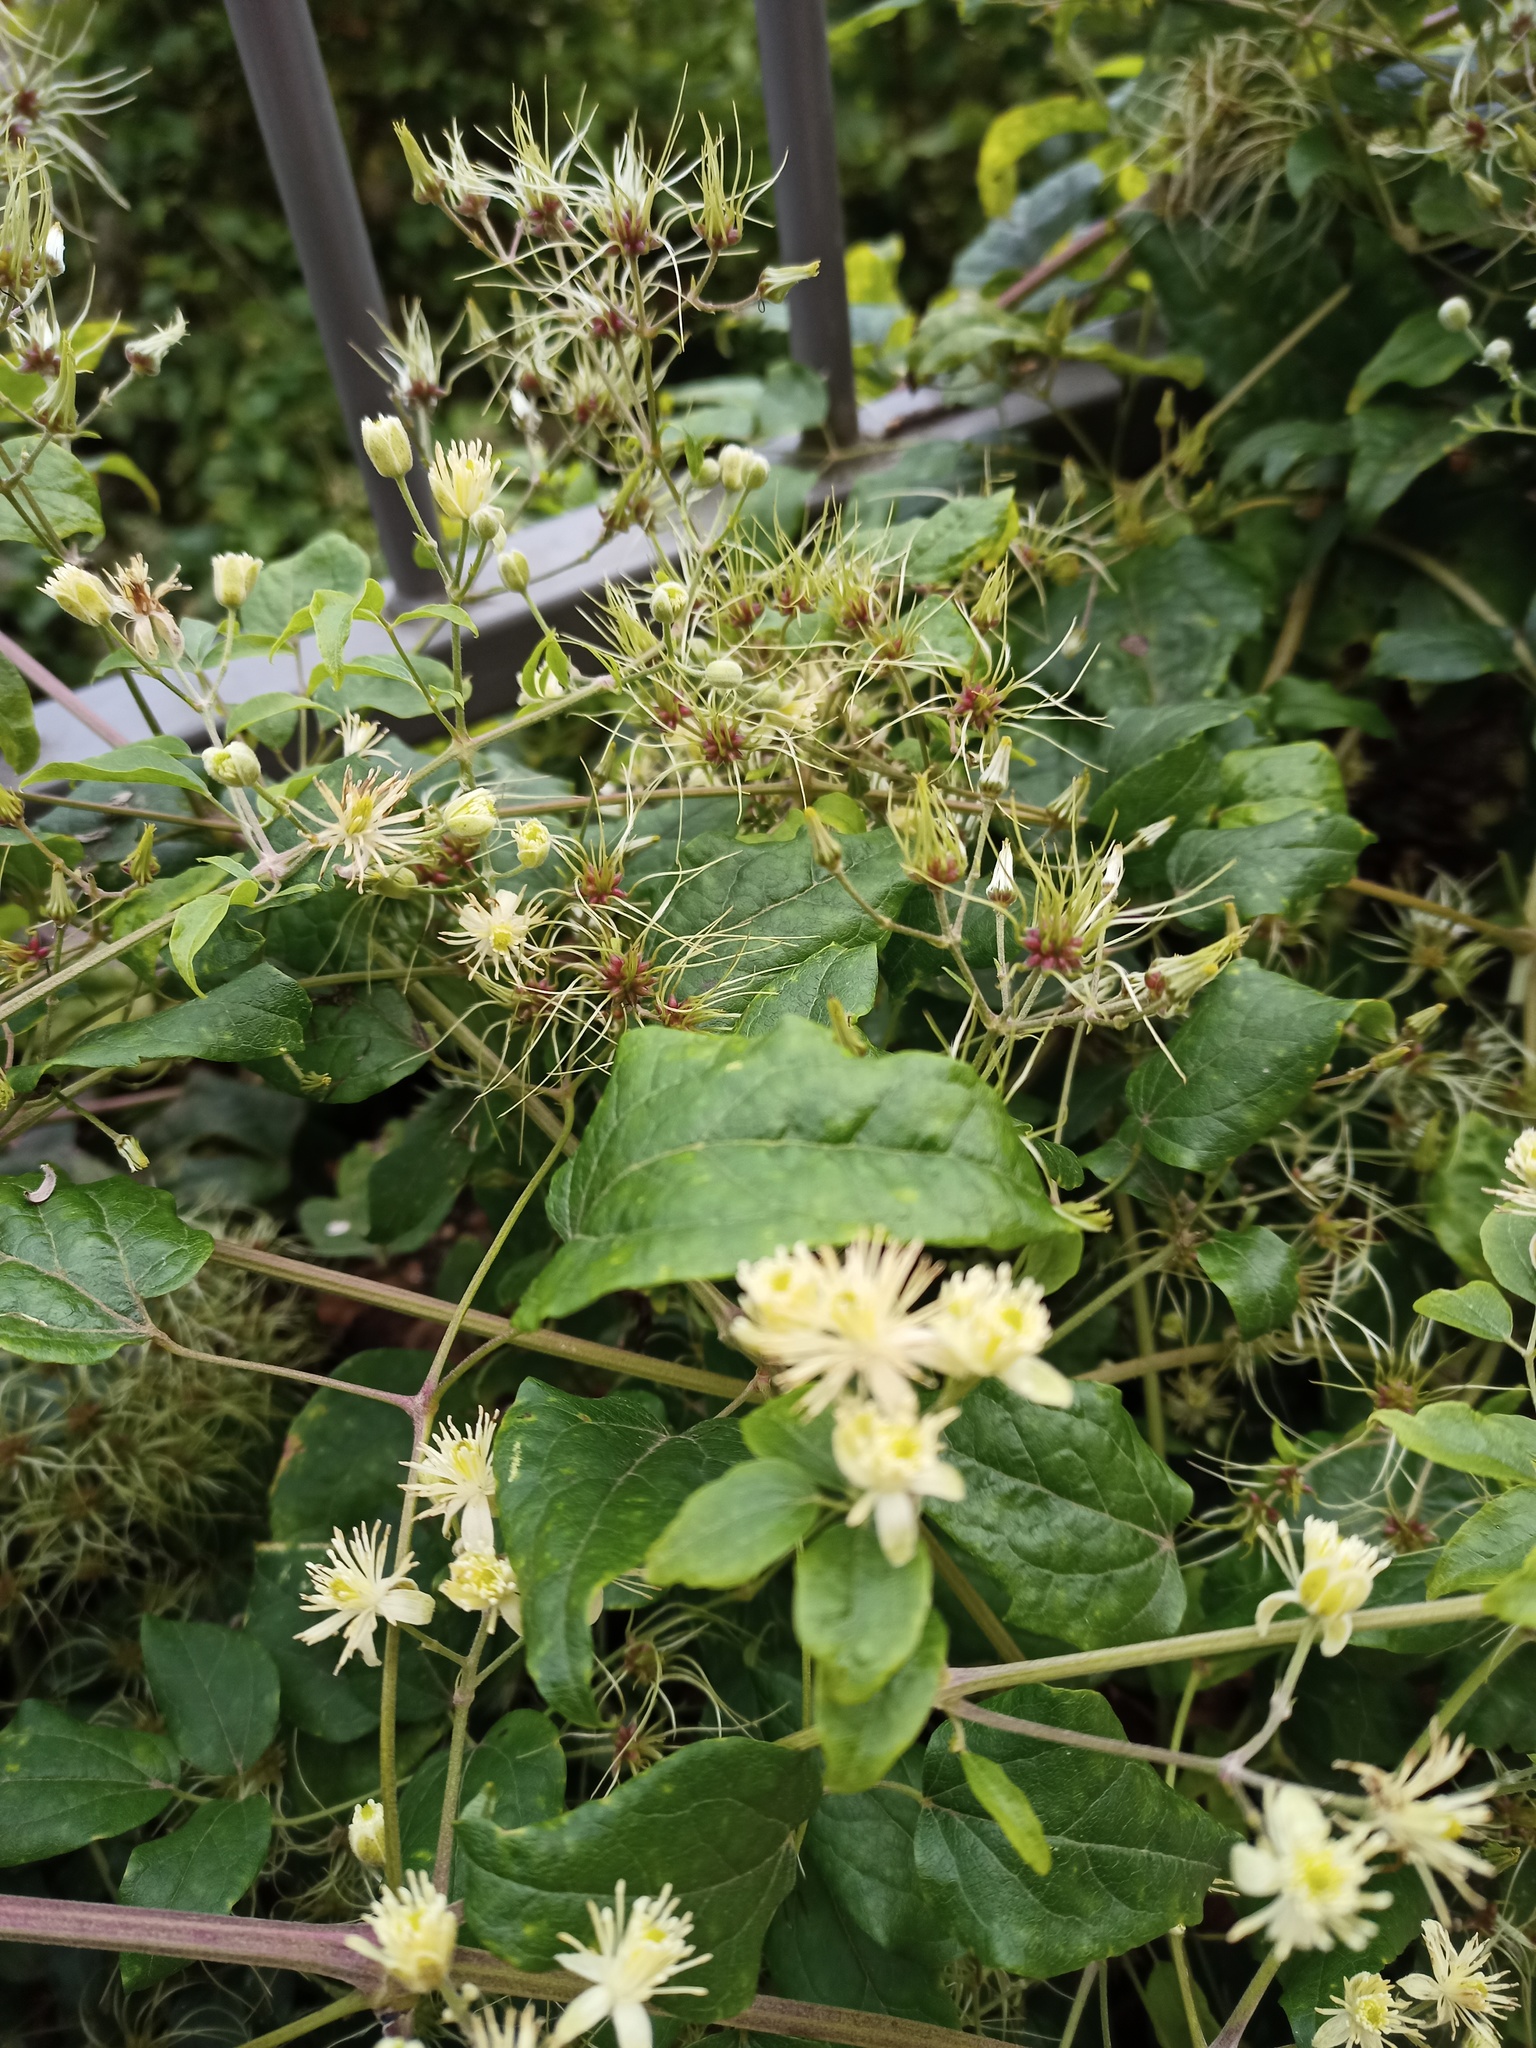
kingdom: Plantae
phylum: Tracheophyta
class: Magnoliopsida
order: Ranunculales
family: Ranunculaceae
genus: Clematis
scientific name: Clematis vitalba
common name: Evergreen clematis
